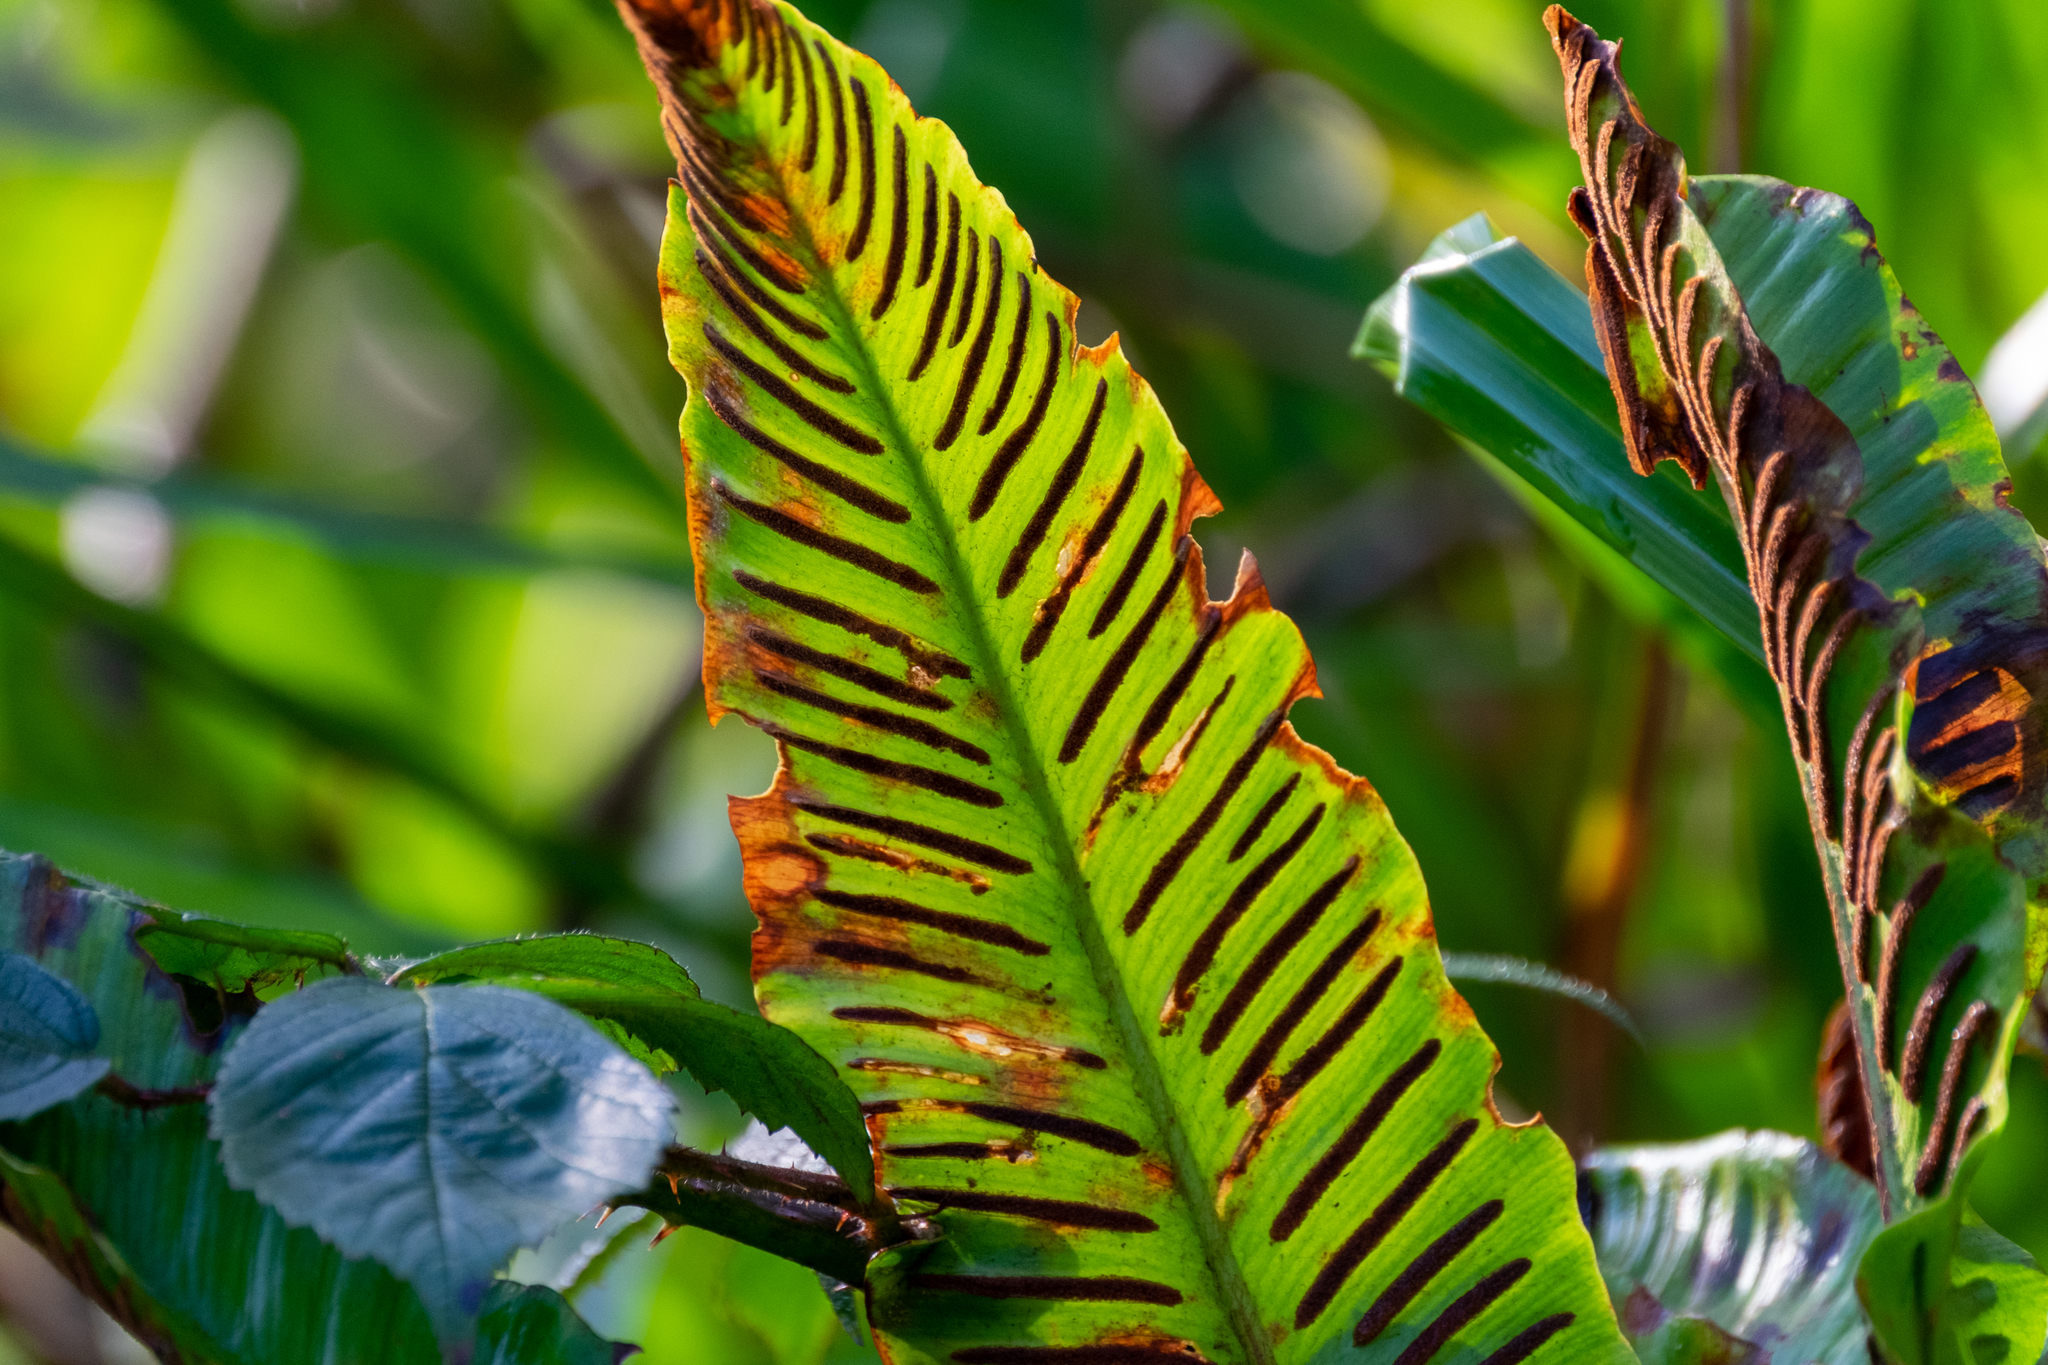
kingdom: Plantae
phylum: Tracheophyta
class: Polypodiopsida
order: Polypodiales
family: Aspleniaceae
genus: Asplenium
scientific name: Asplenium scolopendrium
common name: Hart's-tongue fern
